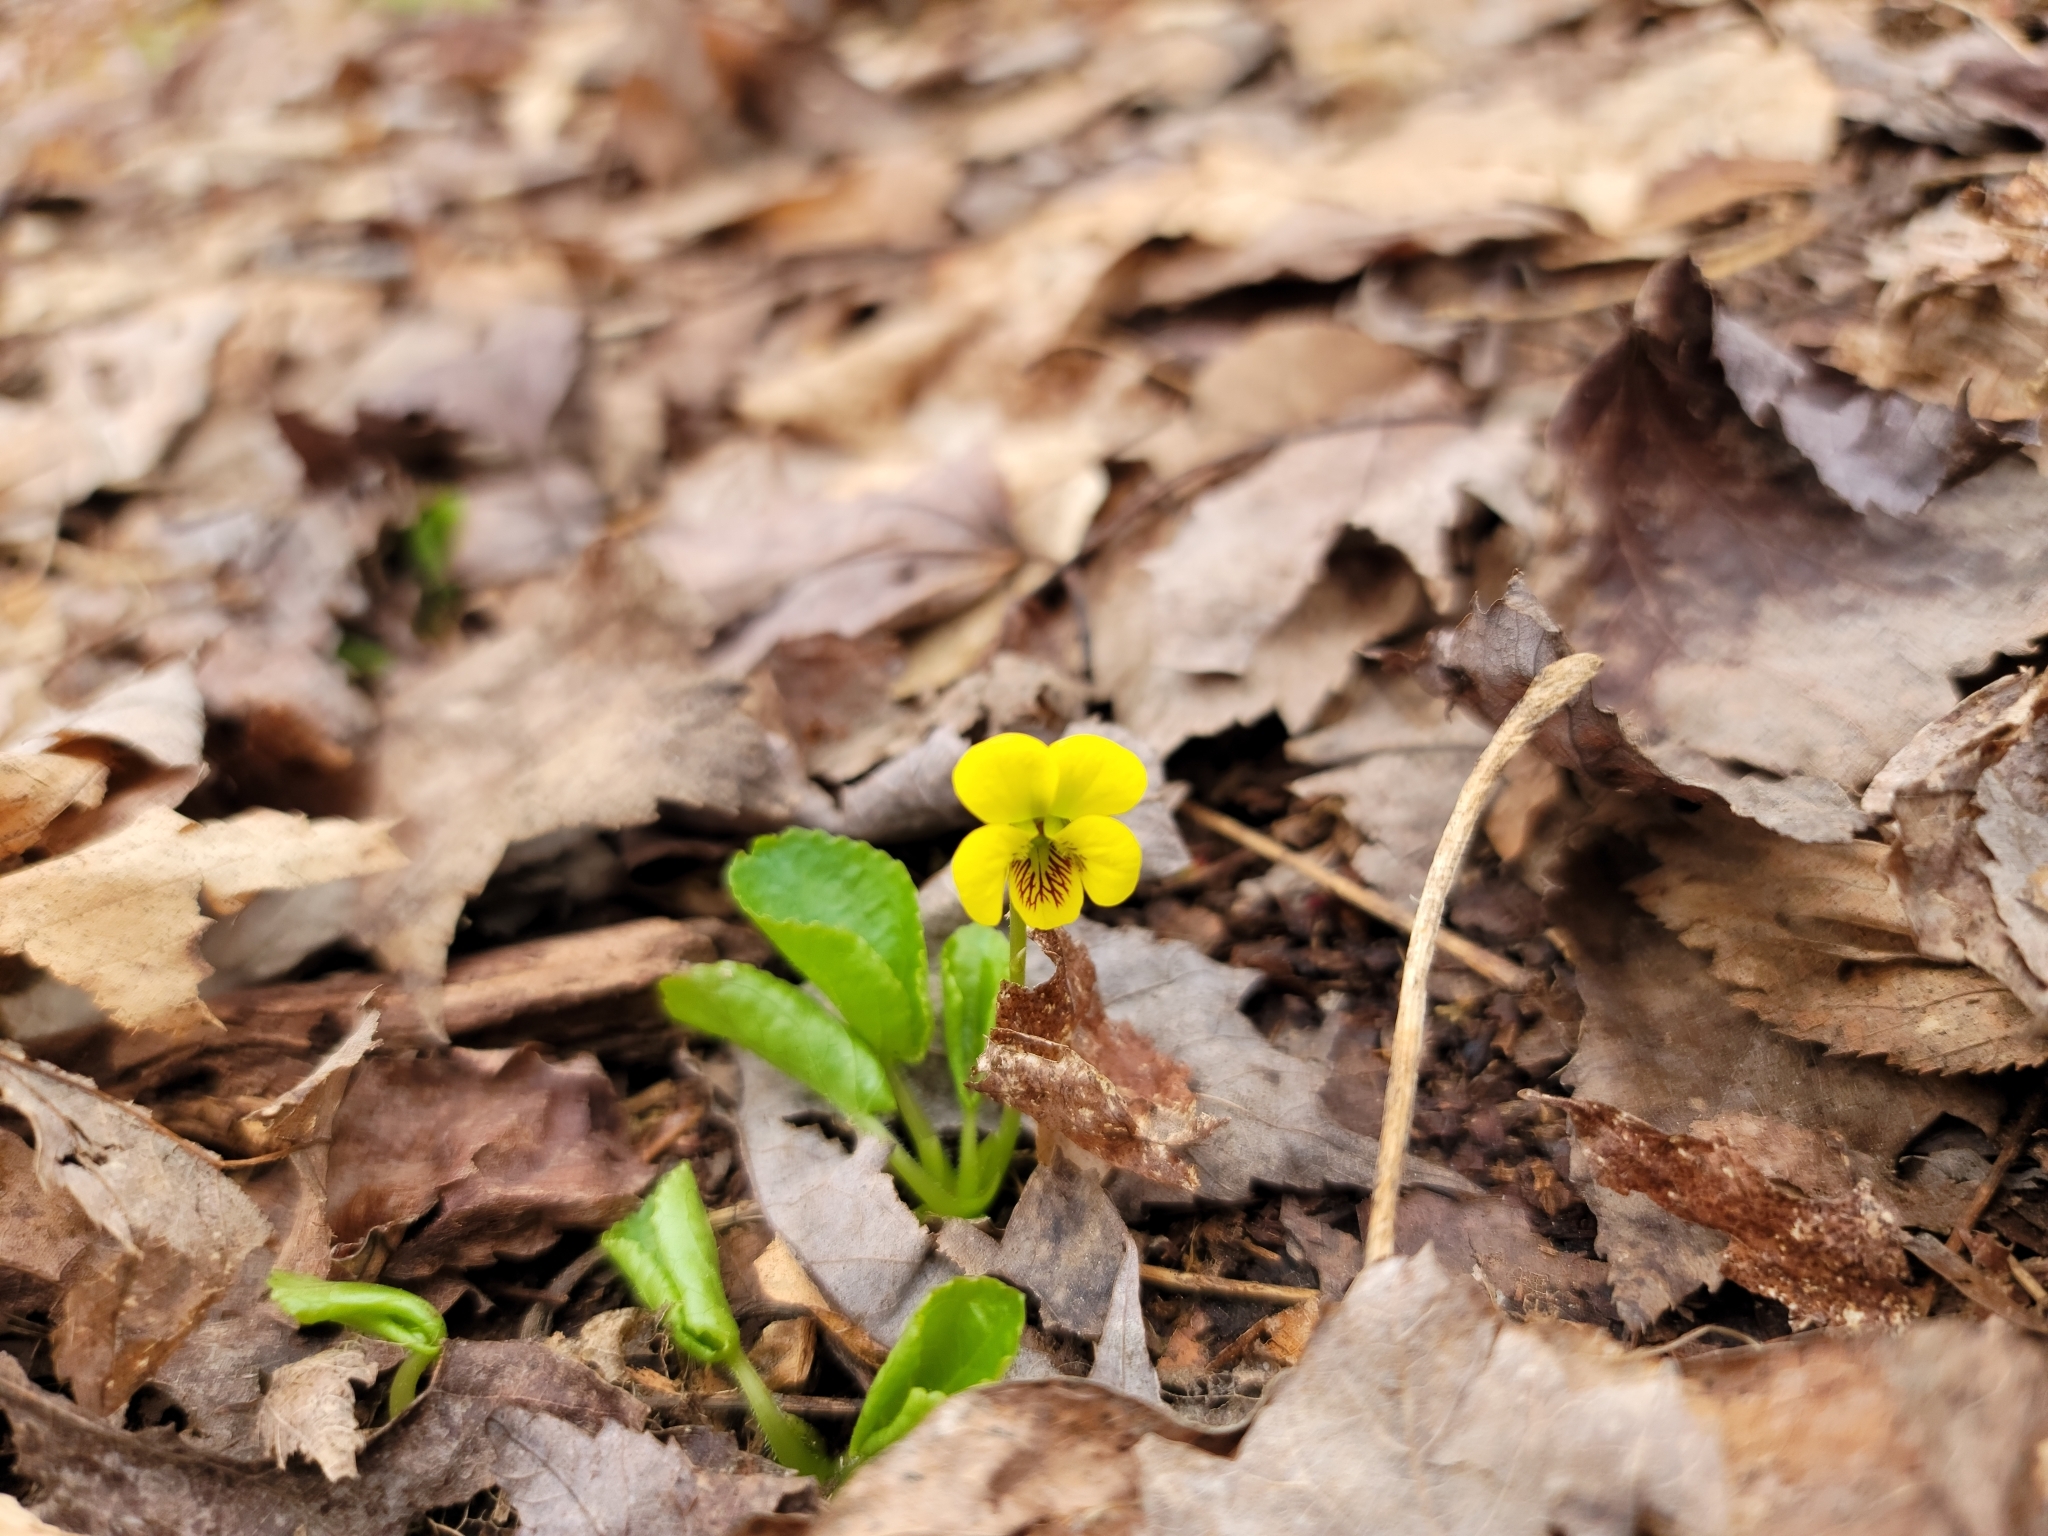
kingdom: Plantae
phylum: Tracheophyta
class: Magnoliopsida
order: Malpighiales
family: Violaceae
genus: Viola
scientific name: Viola rotundifolia
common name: Early yellow violet
